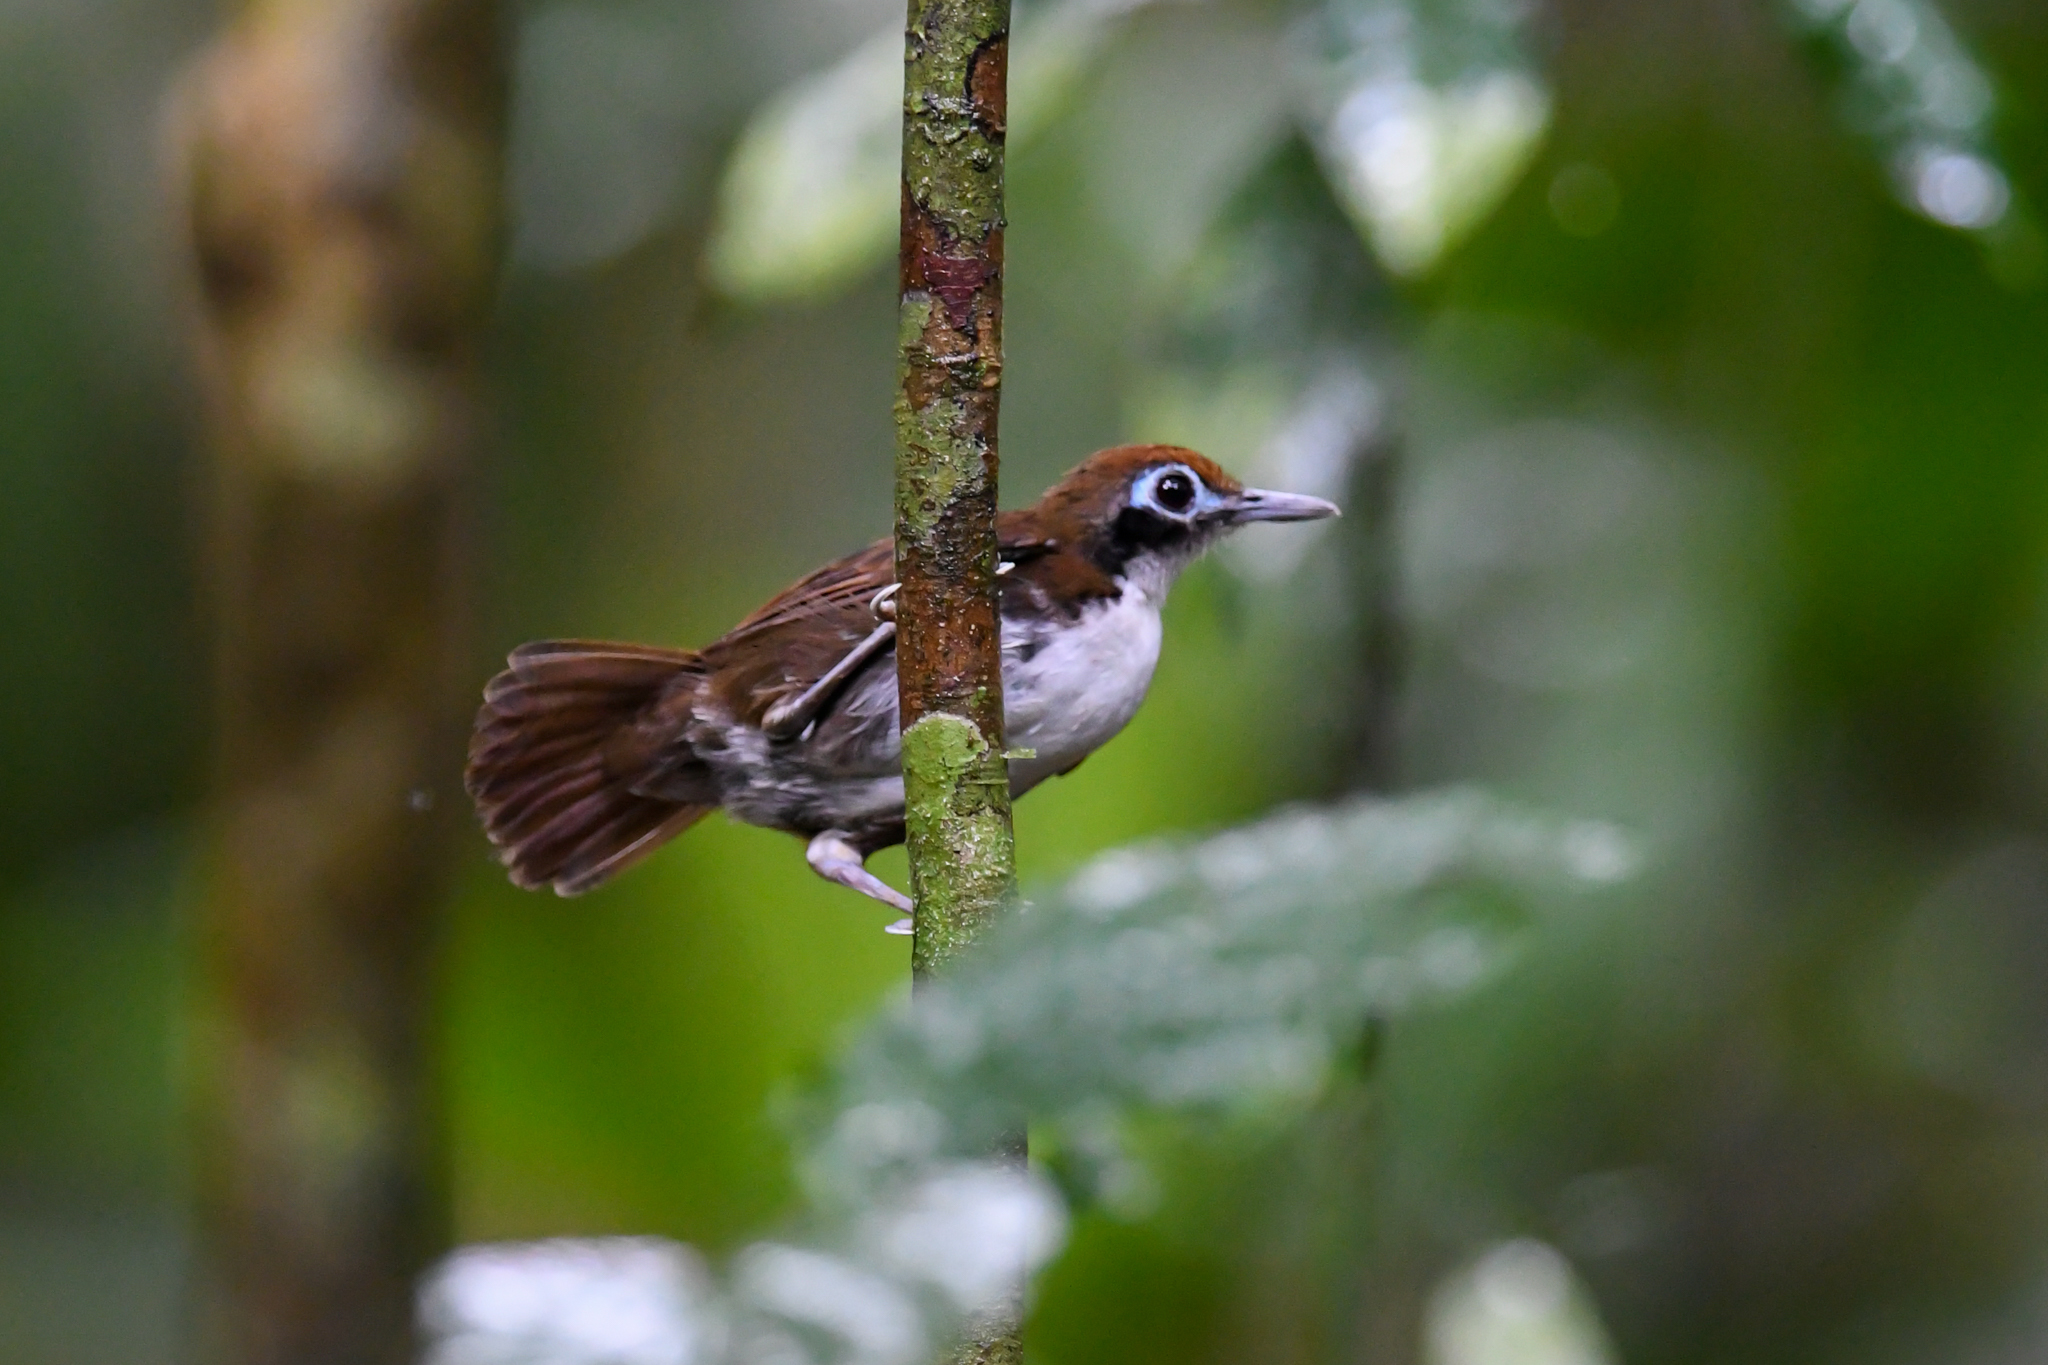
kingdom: Animalia
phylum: Chordata
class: Aves
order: Passeriformes
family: Thamnophilidae
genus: Gymnopithys
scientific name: Gymnopithys leucaspis
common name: White-cheeked antbird
